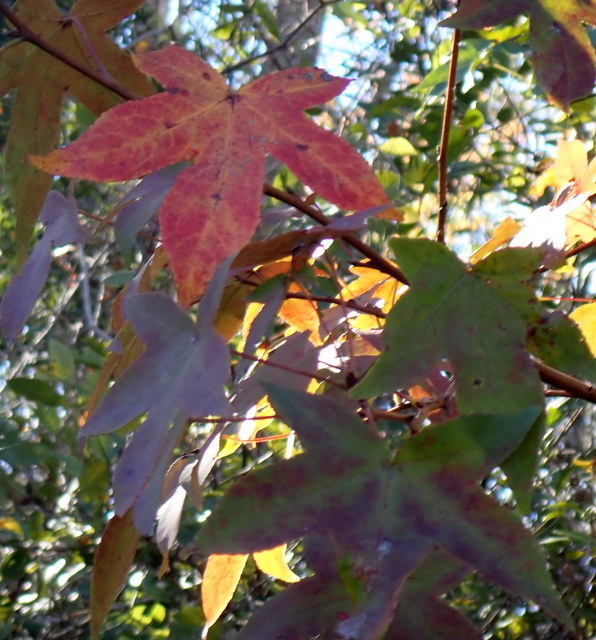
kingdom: Plantae
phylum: Tracheophyta
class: Magnoliopsida
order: Saxifragales
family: Altingiaceae
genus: Liquidambar
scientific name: Liquidambar styraciflua
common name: Sweet gum
